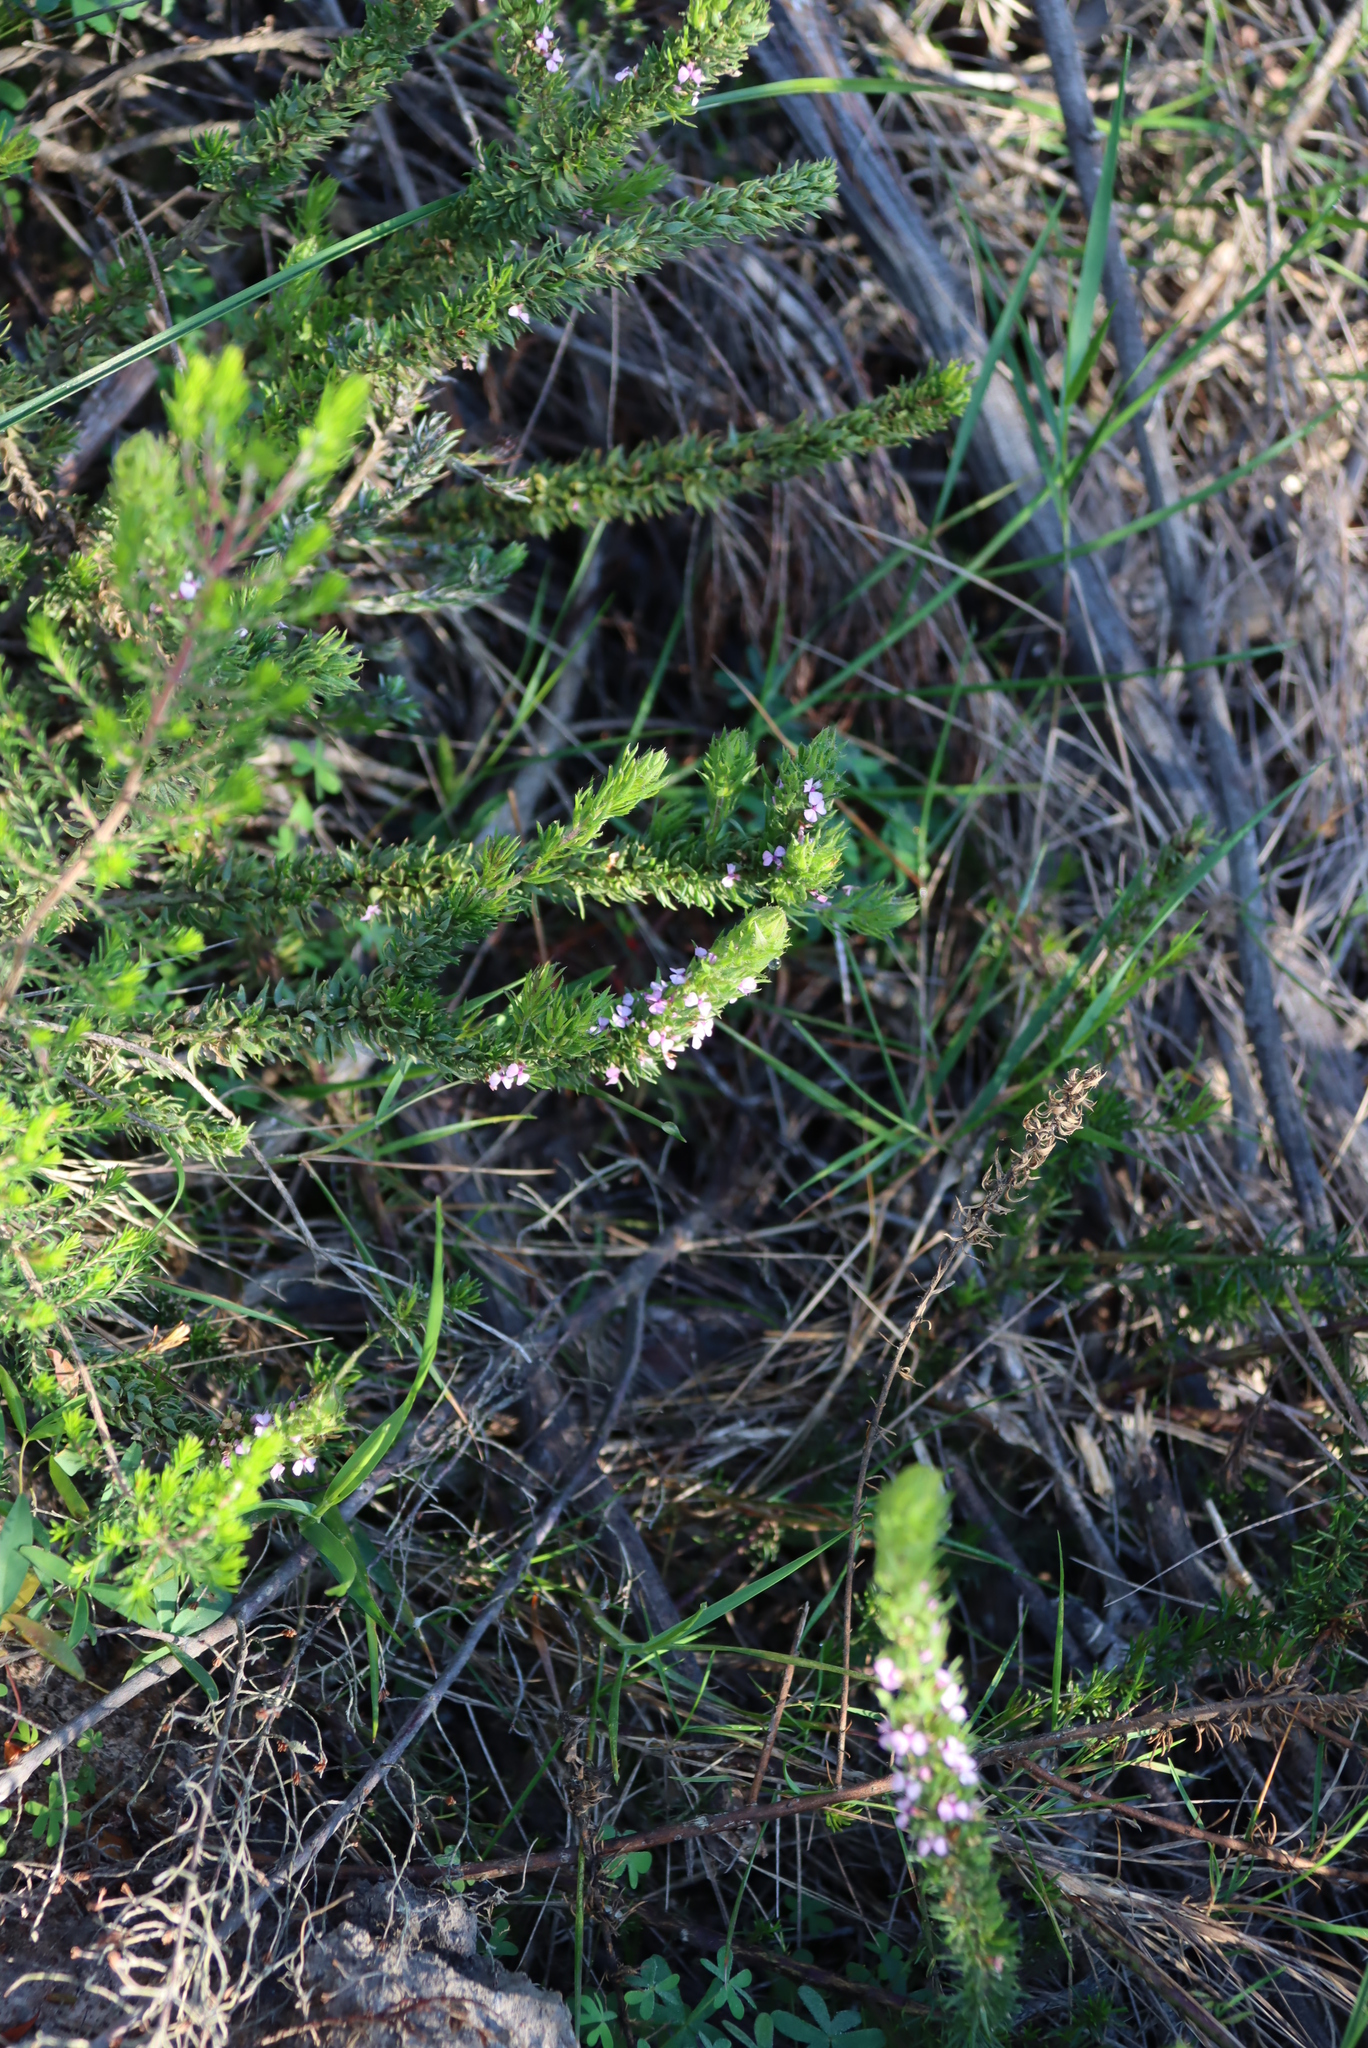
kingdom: Plantae
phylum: Tracheophyta
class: Magnoliopsida
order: Fabales
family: Polygalaceae
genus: Muraltia
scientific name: Muraltia alopecuroides
